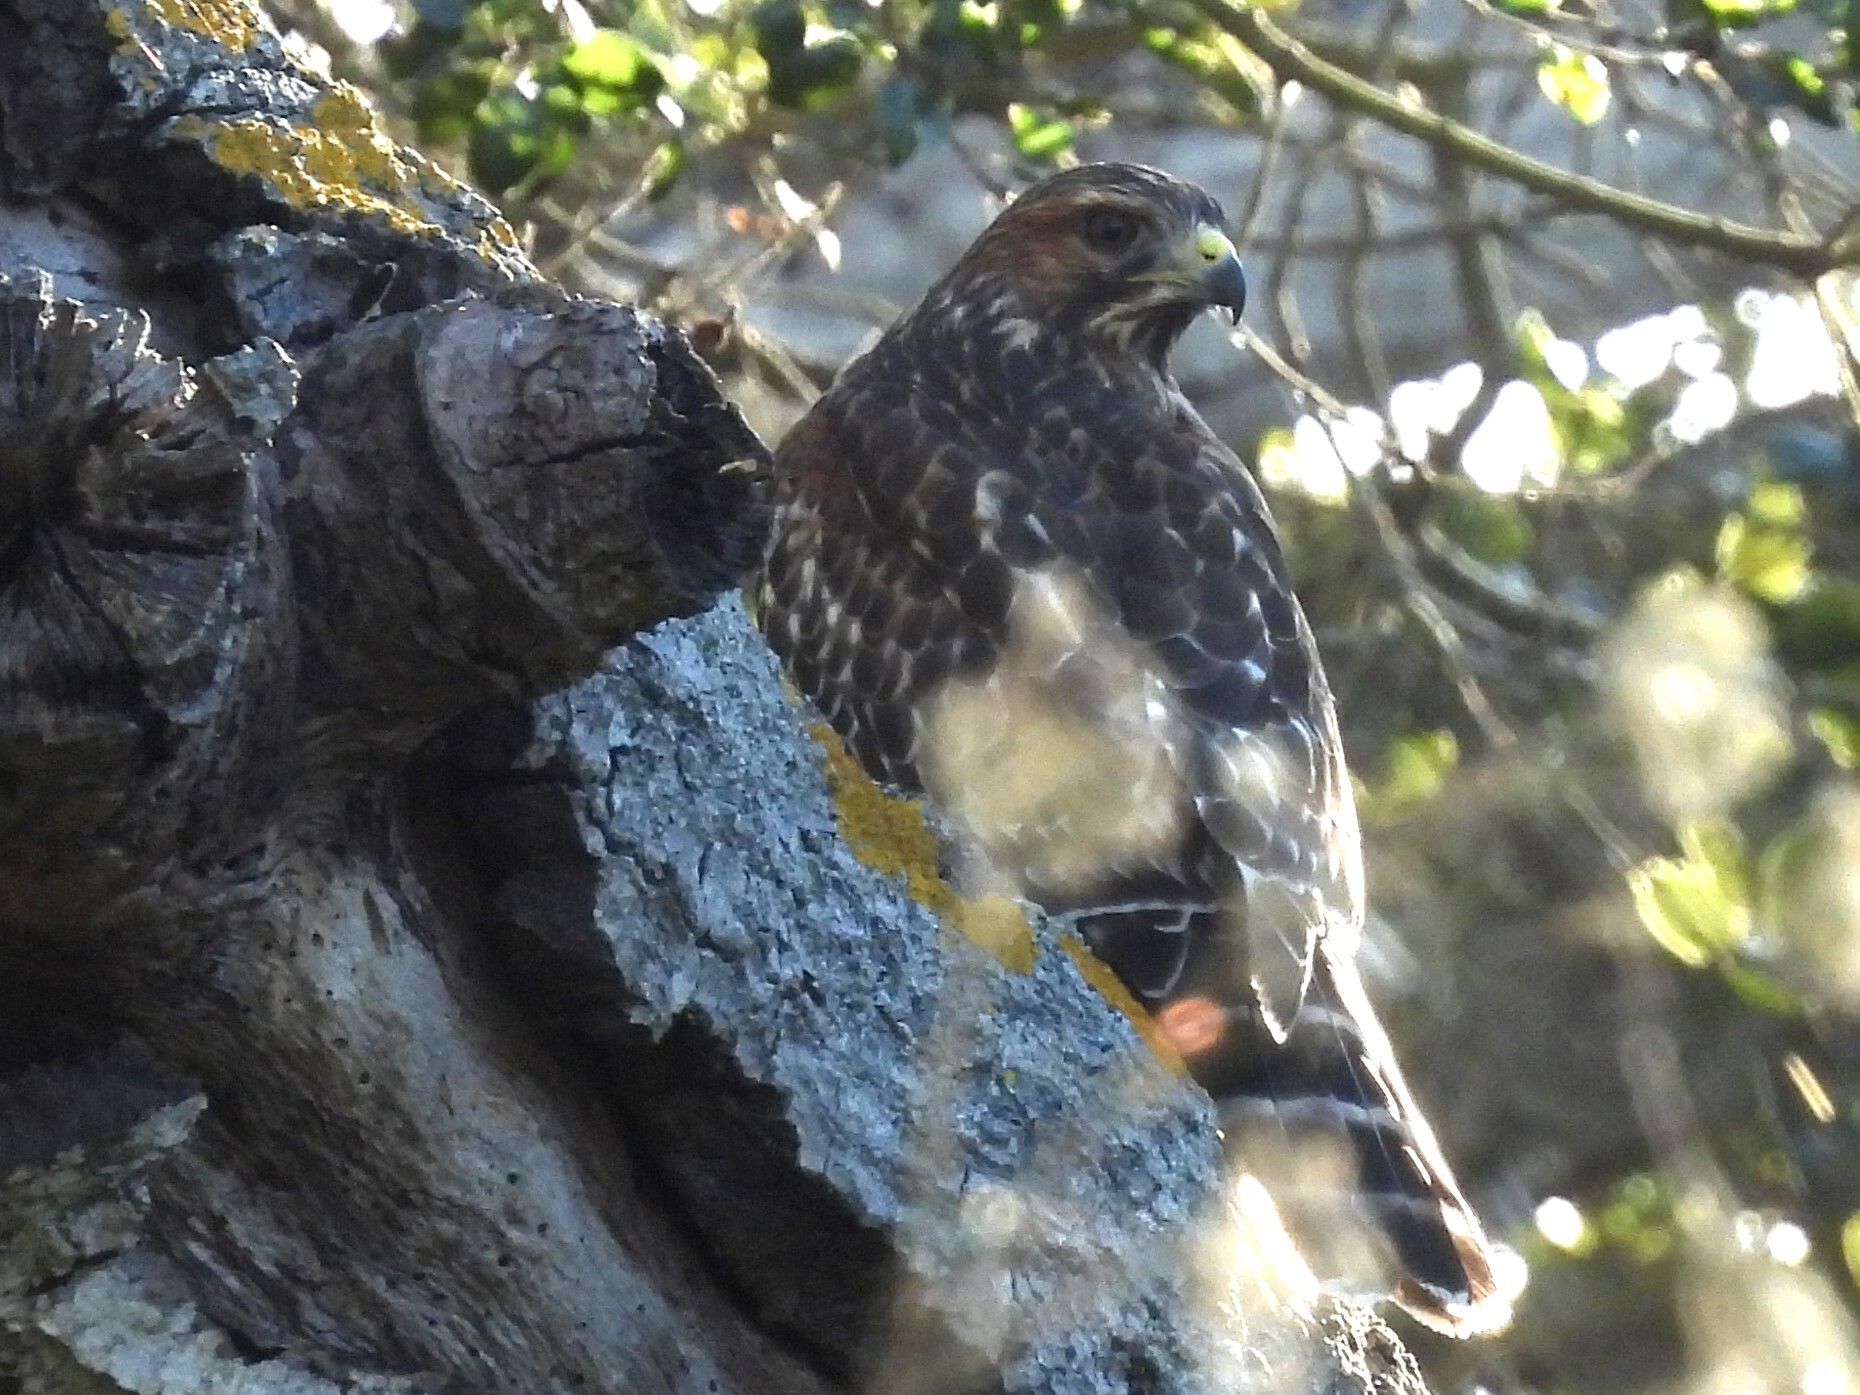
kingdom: Animalia
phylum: Chordata
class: Aves
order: Accipitriformes
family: Accipitridae
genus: Buteo
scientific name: Buteo lineatus
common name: Red-shouldered hawk
